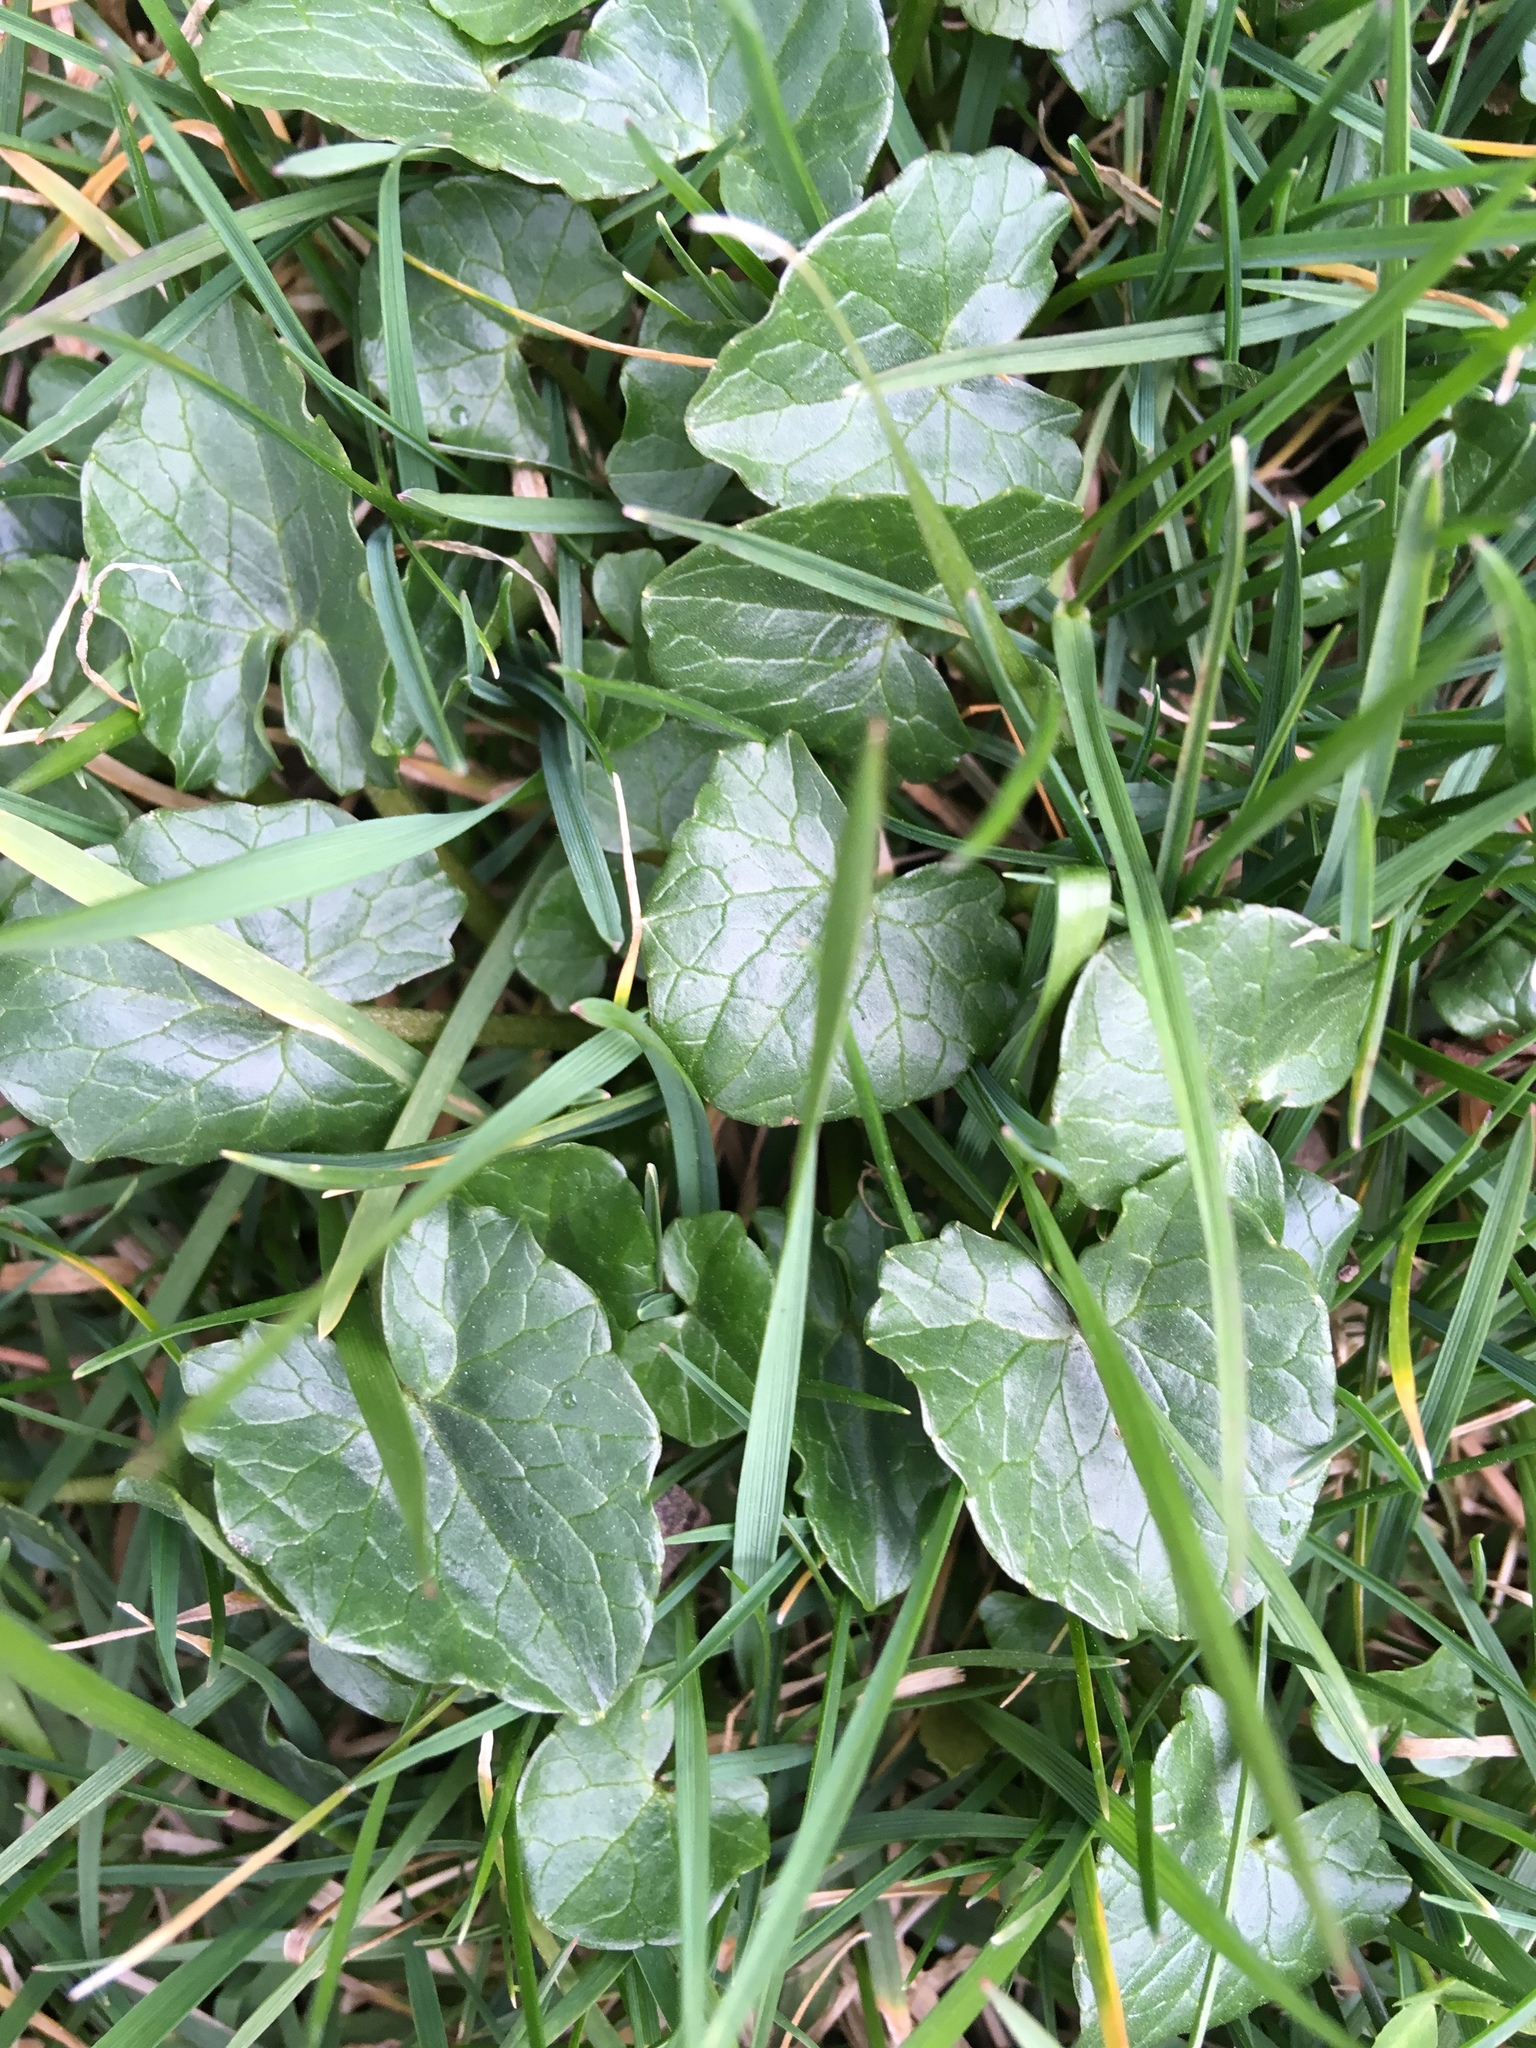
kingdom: Plantae
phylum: Tracheophyta
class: Magnoliopsida
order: Ranunculales
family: Ranunculaceae
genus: Ficaria
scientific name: Ficaria verna
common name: Lesser celandine
